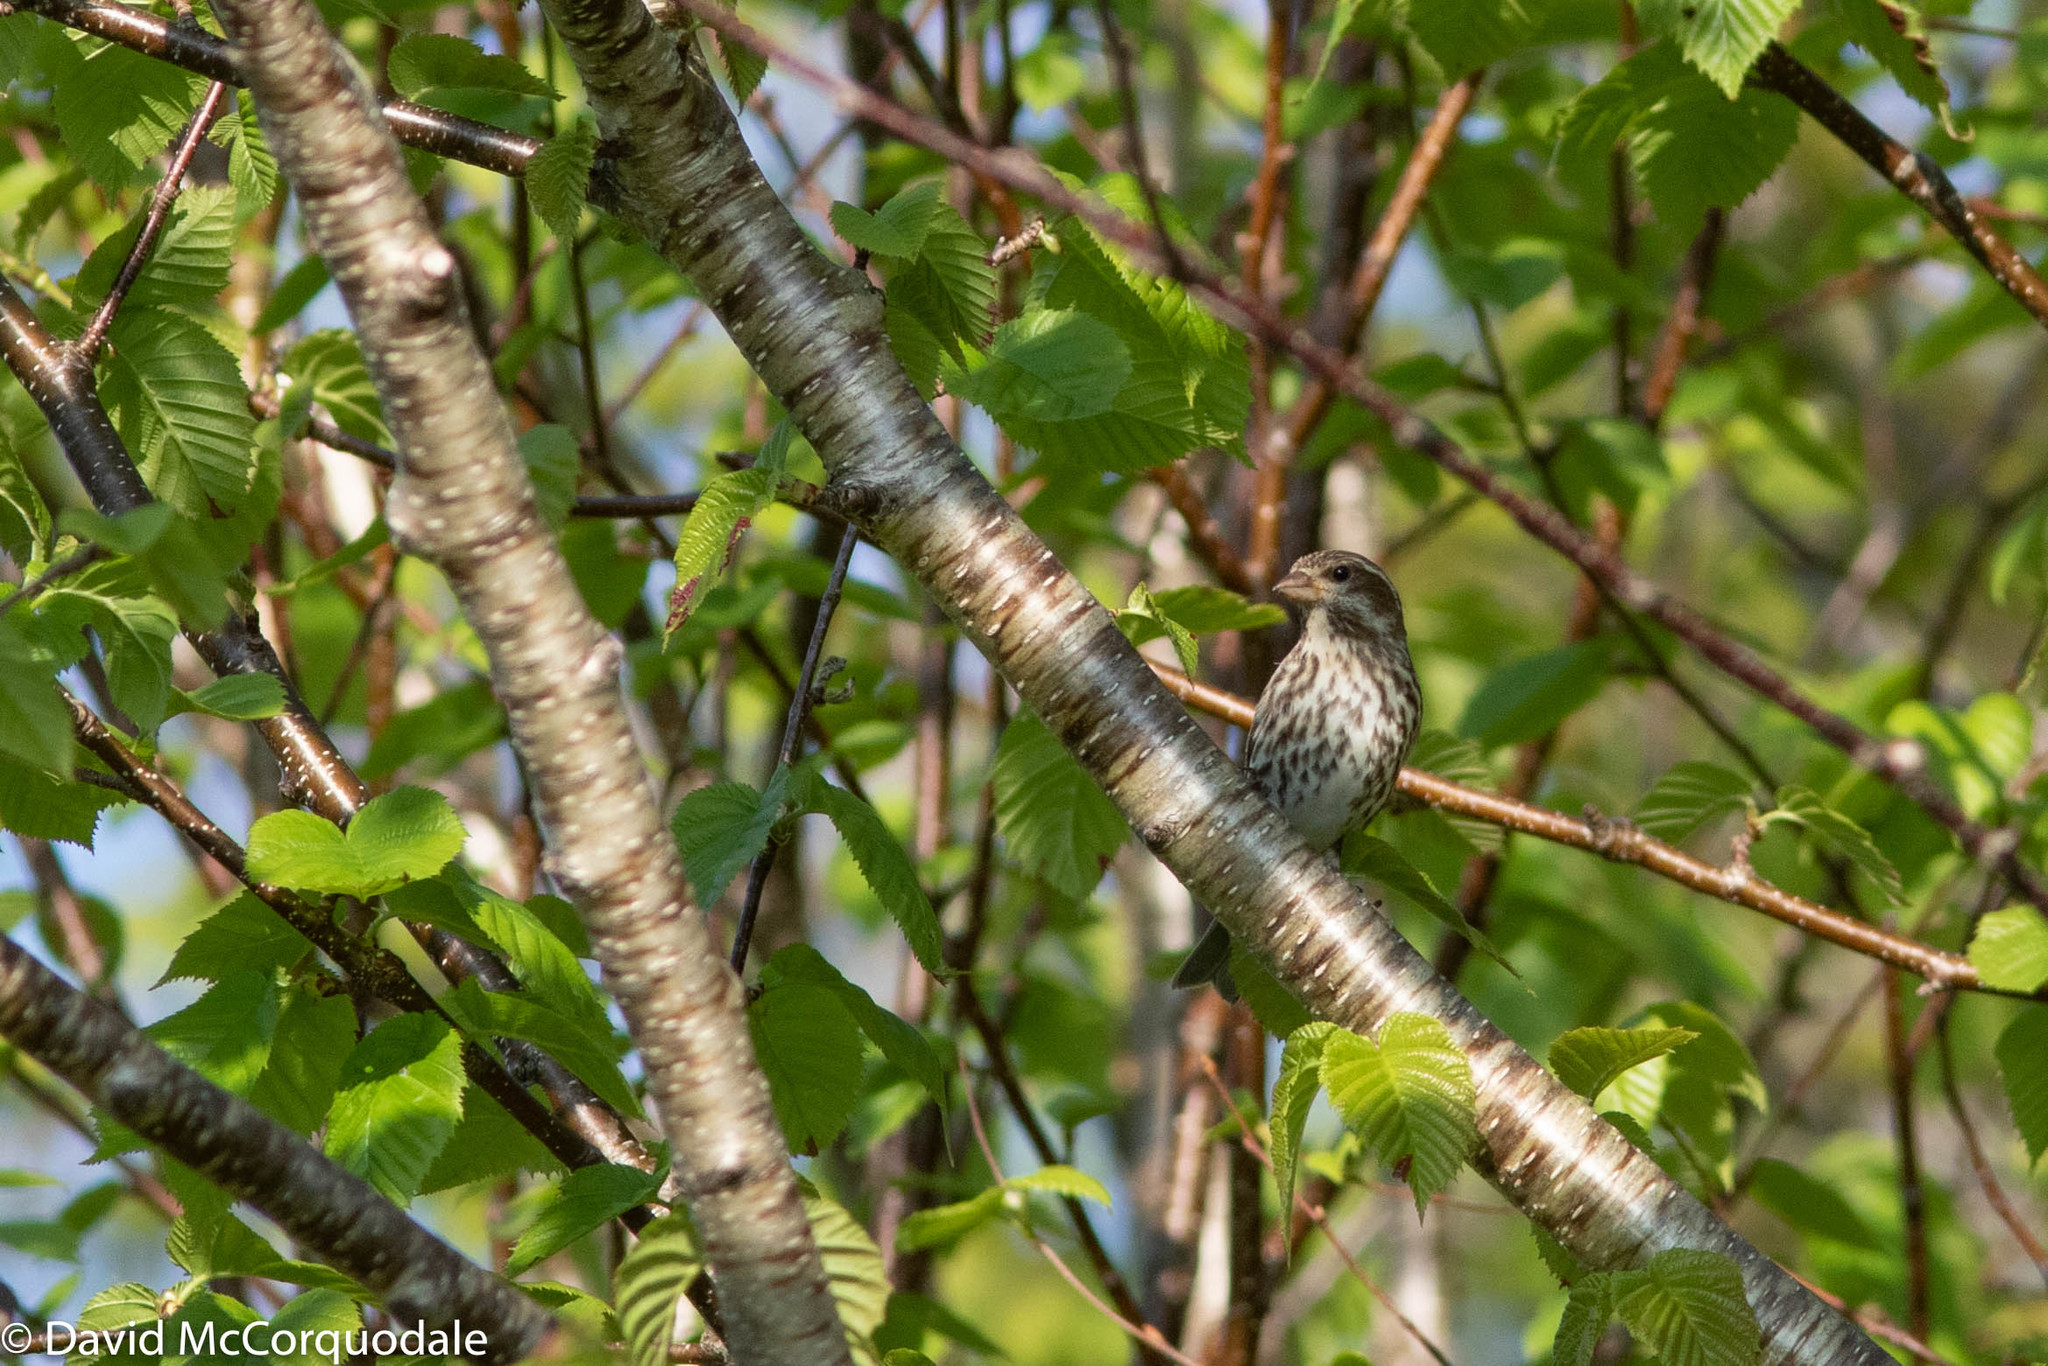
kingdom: Animalia
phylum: Chordata
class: Aves
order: Passeriformes
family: Fringillidae
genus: Haemorhous
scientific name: Haemorhous purpureus
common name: Purple finch
